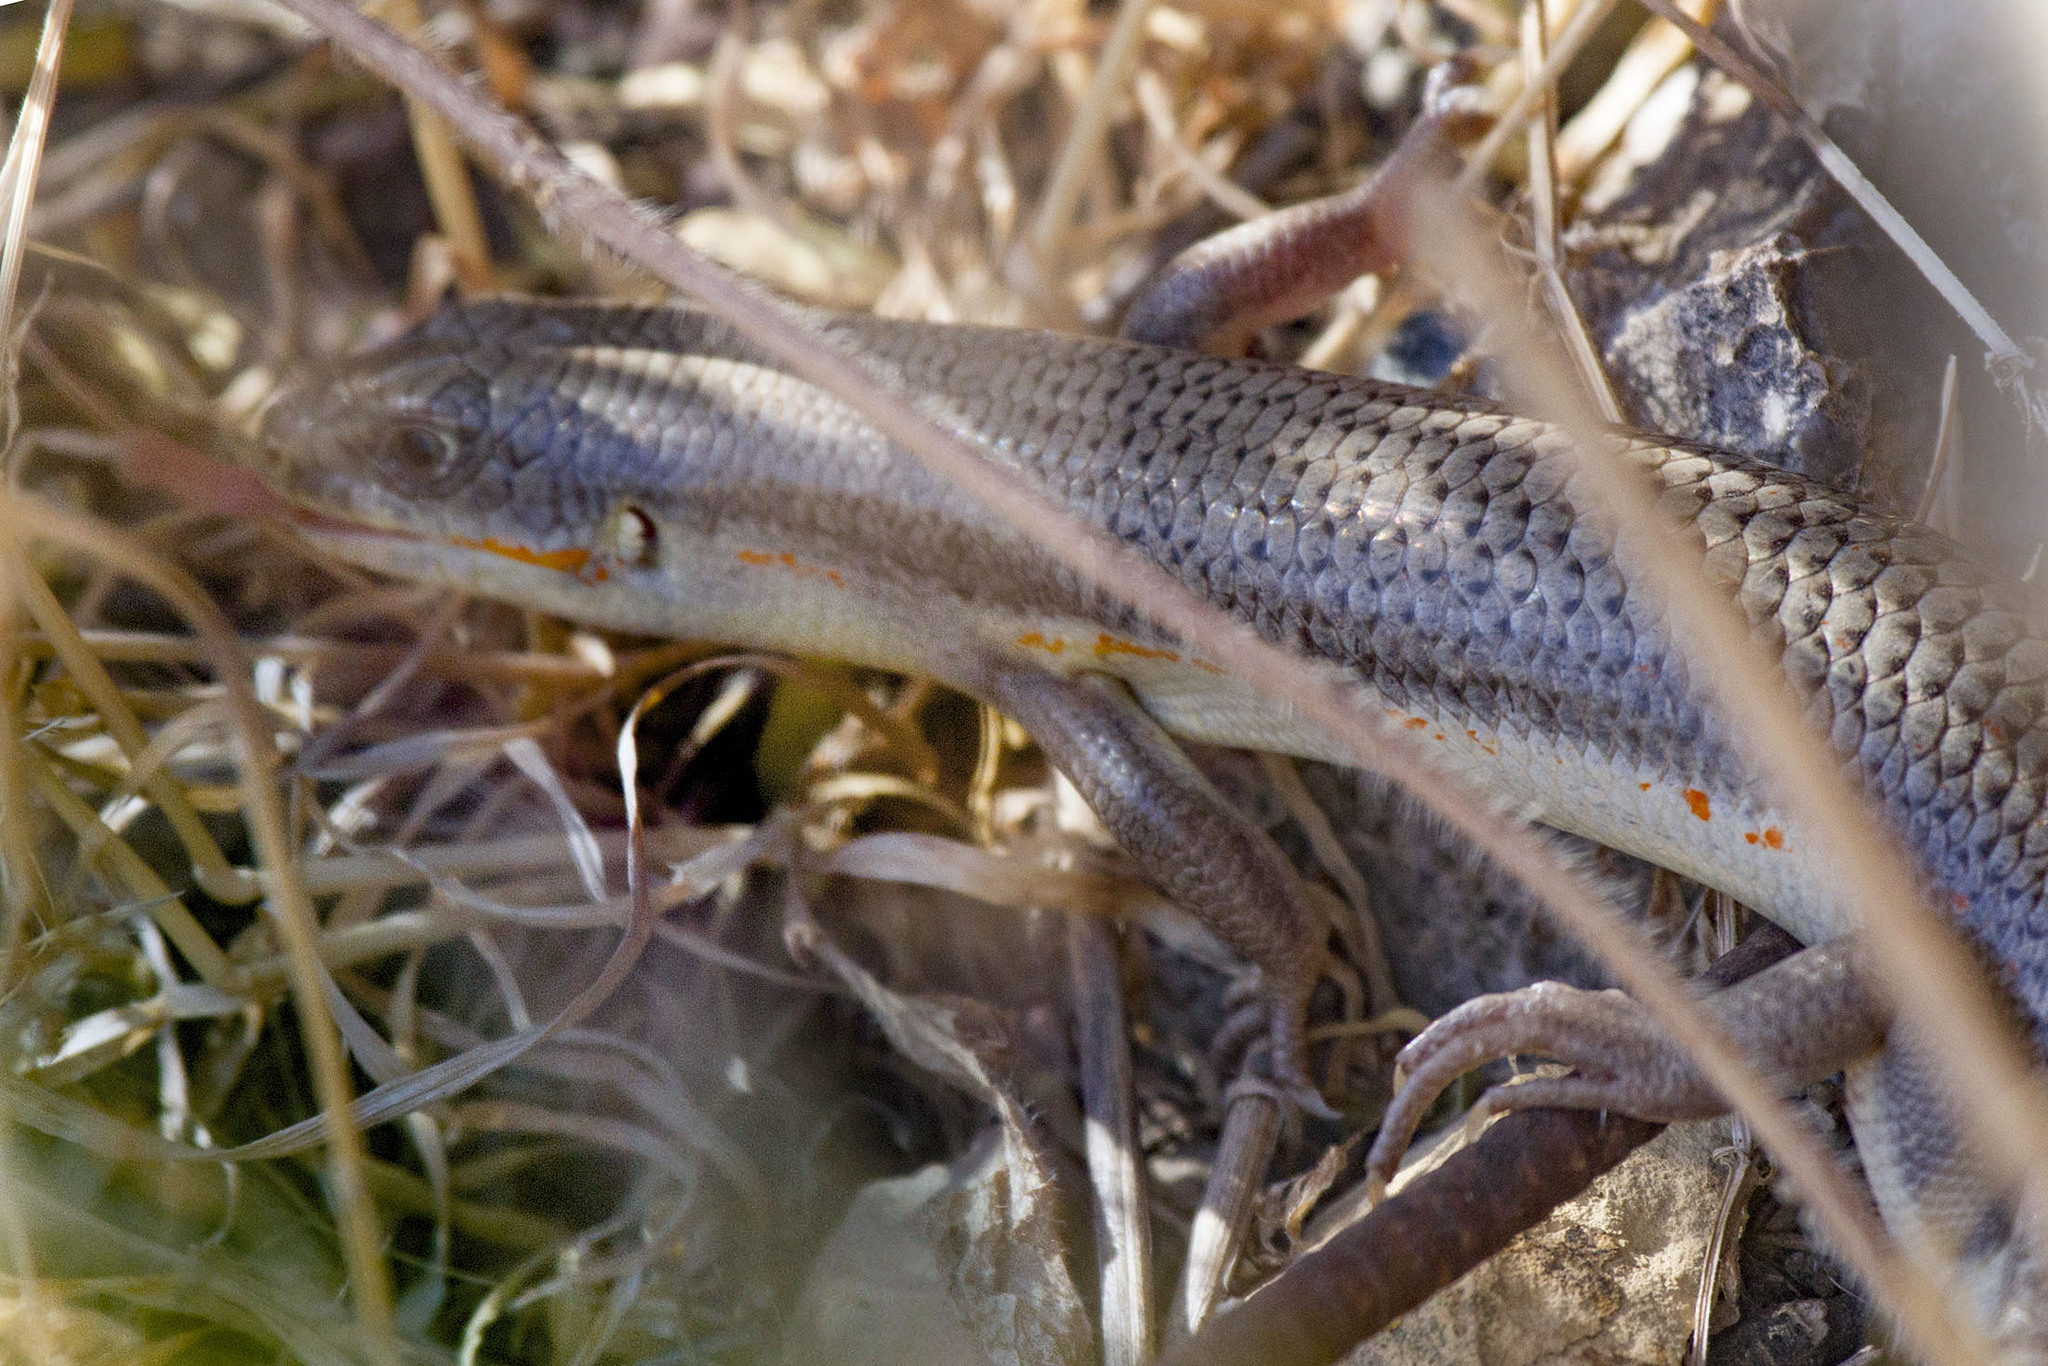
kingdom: Animalia
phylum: Chordata
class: Squamata
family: Scincidae
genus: Eumeces
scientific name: Eumeces schneiderii
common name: Schneider's skink
